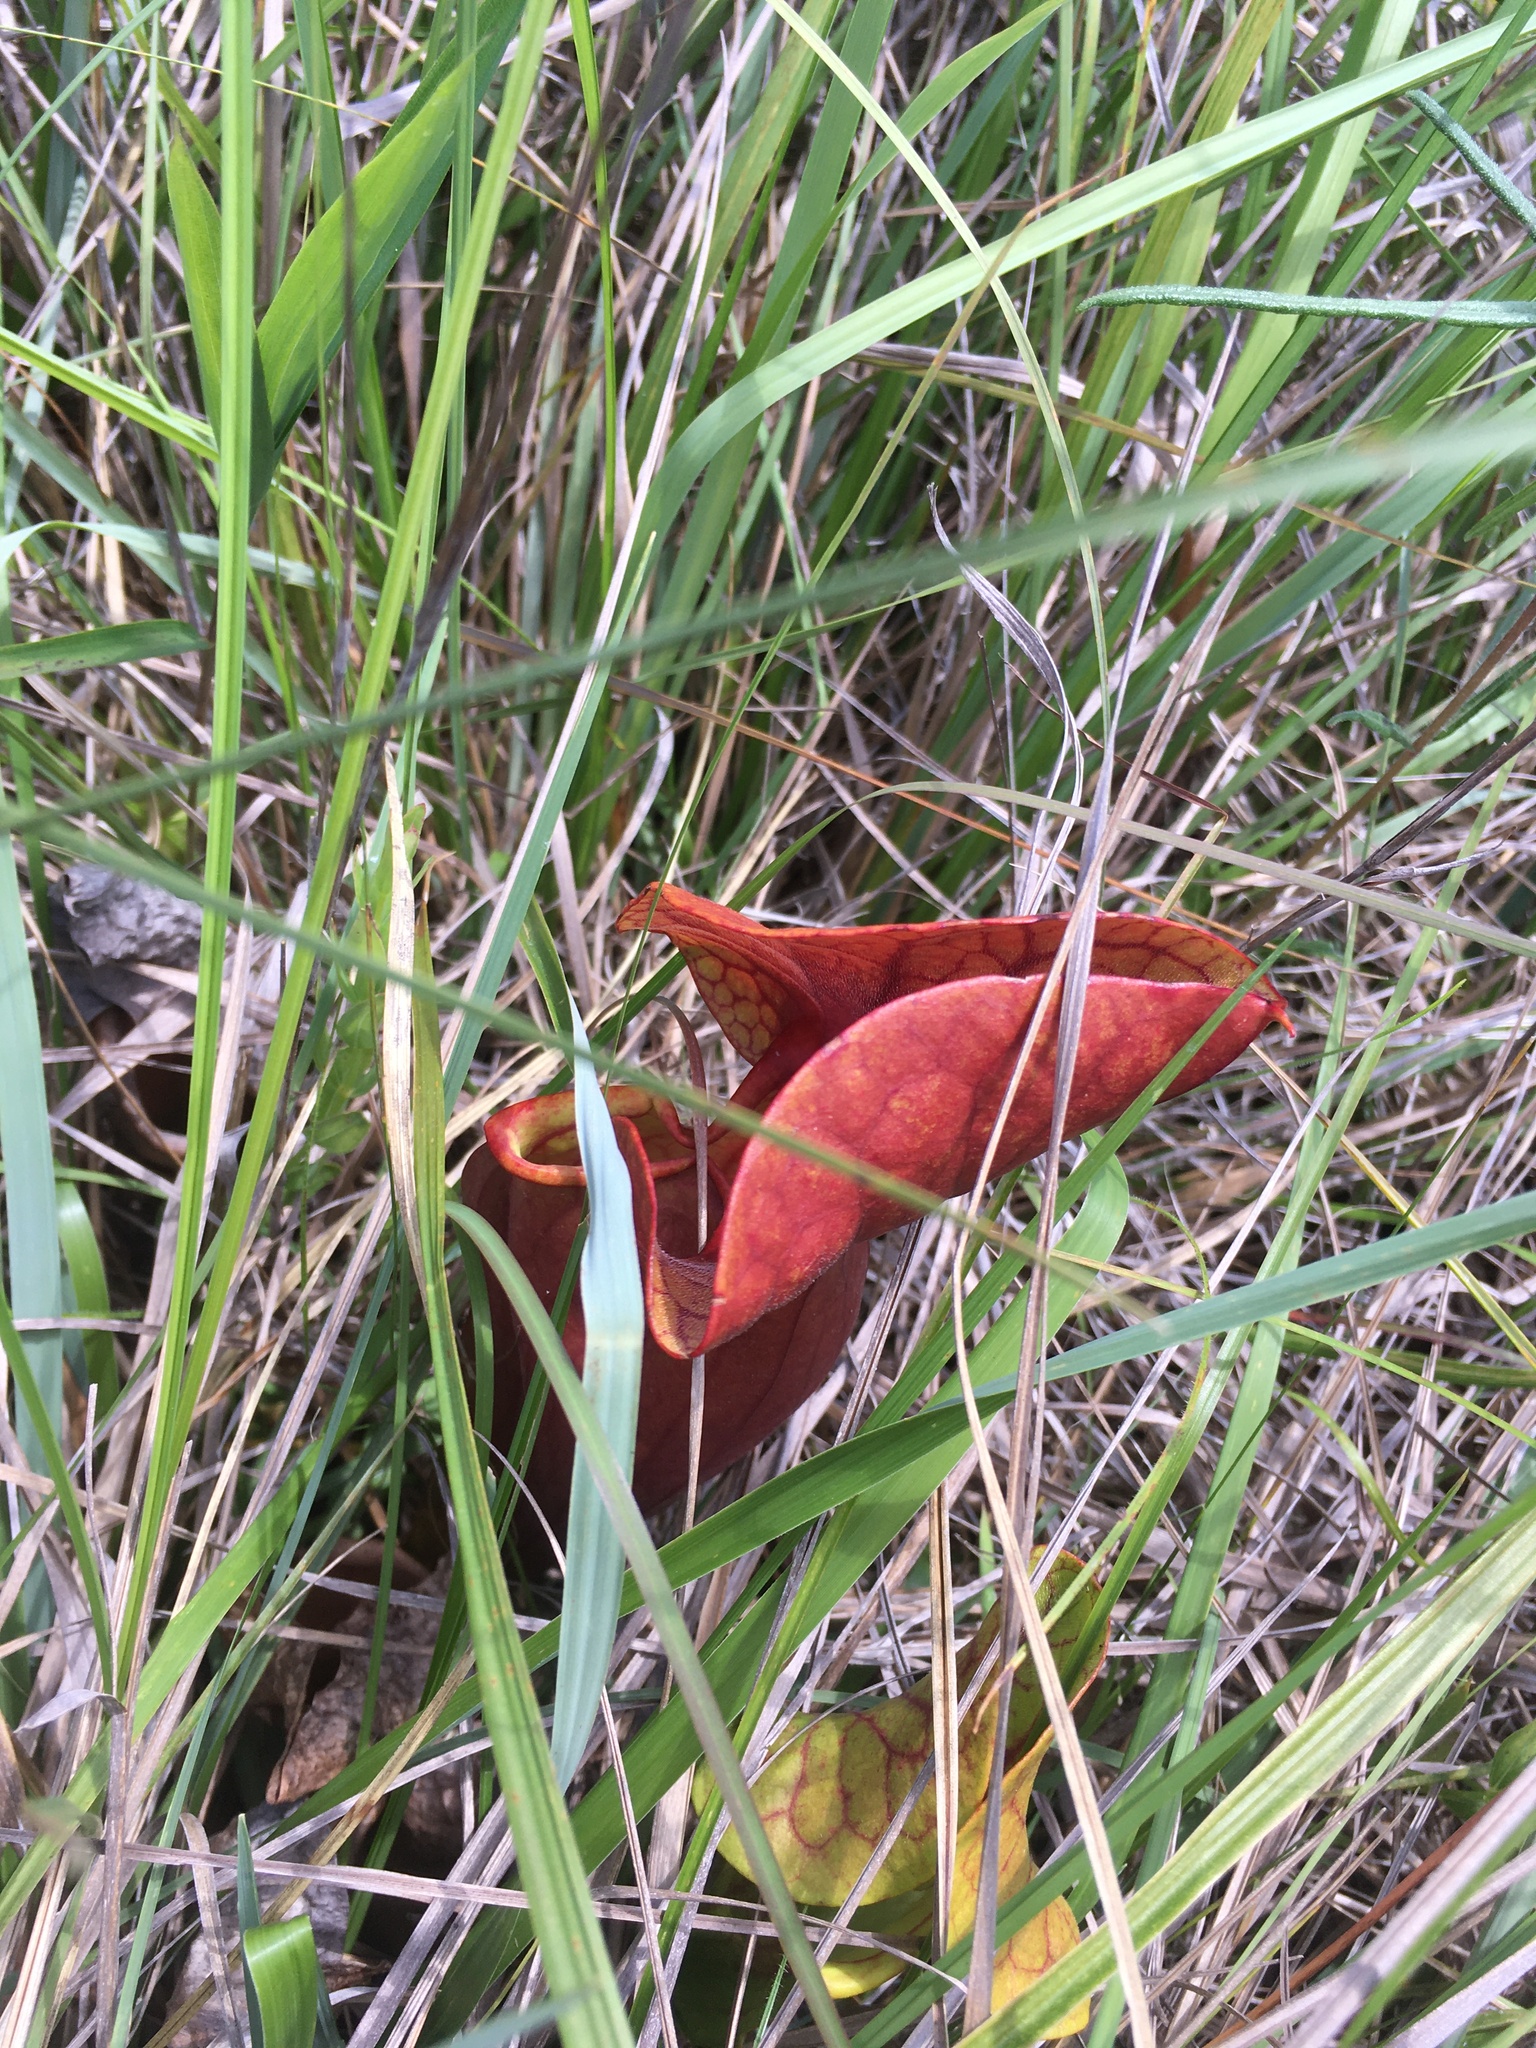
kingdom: Plantae
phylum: Tracheophyta
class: Magnoliopsida
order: Ericales
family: Sarraceniaceae
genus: Sarracenia
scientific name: Sarracenia catesbaei
